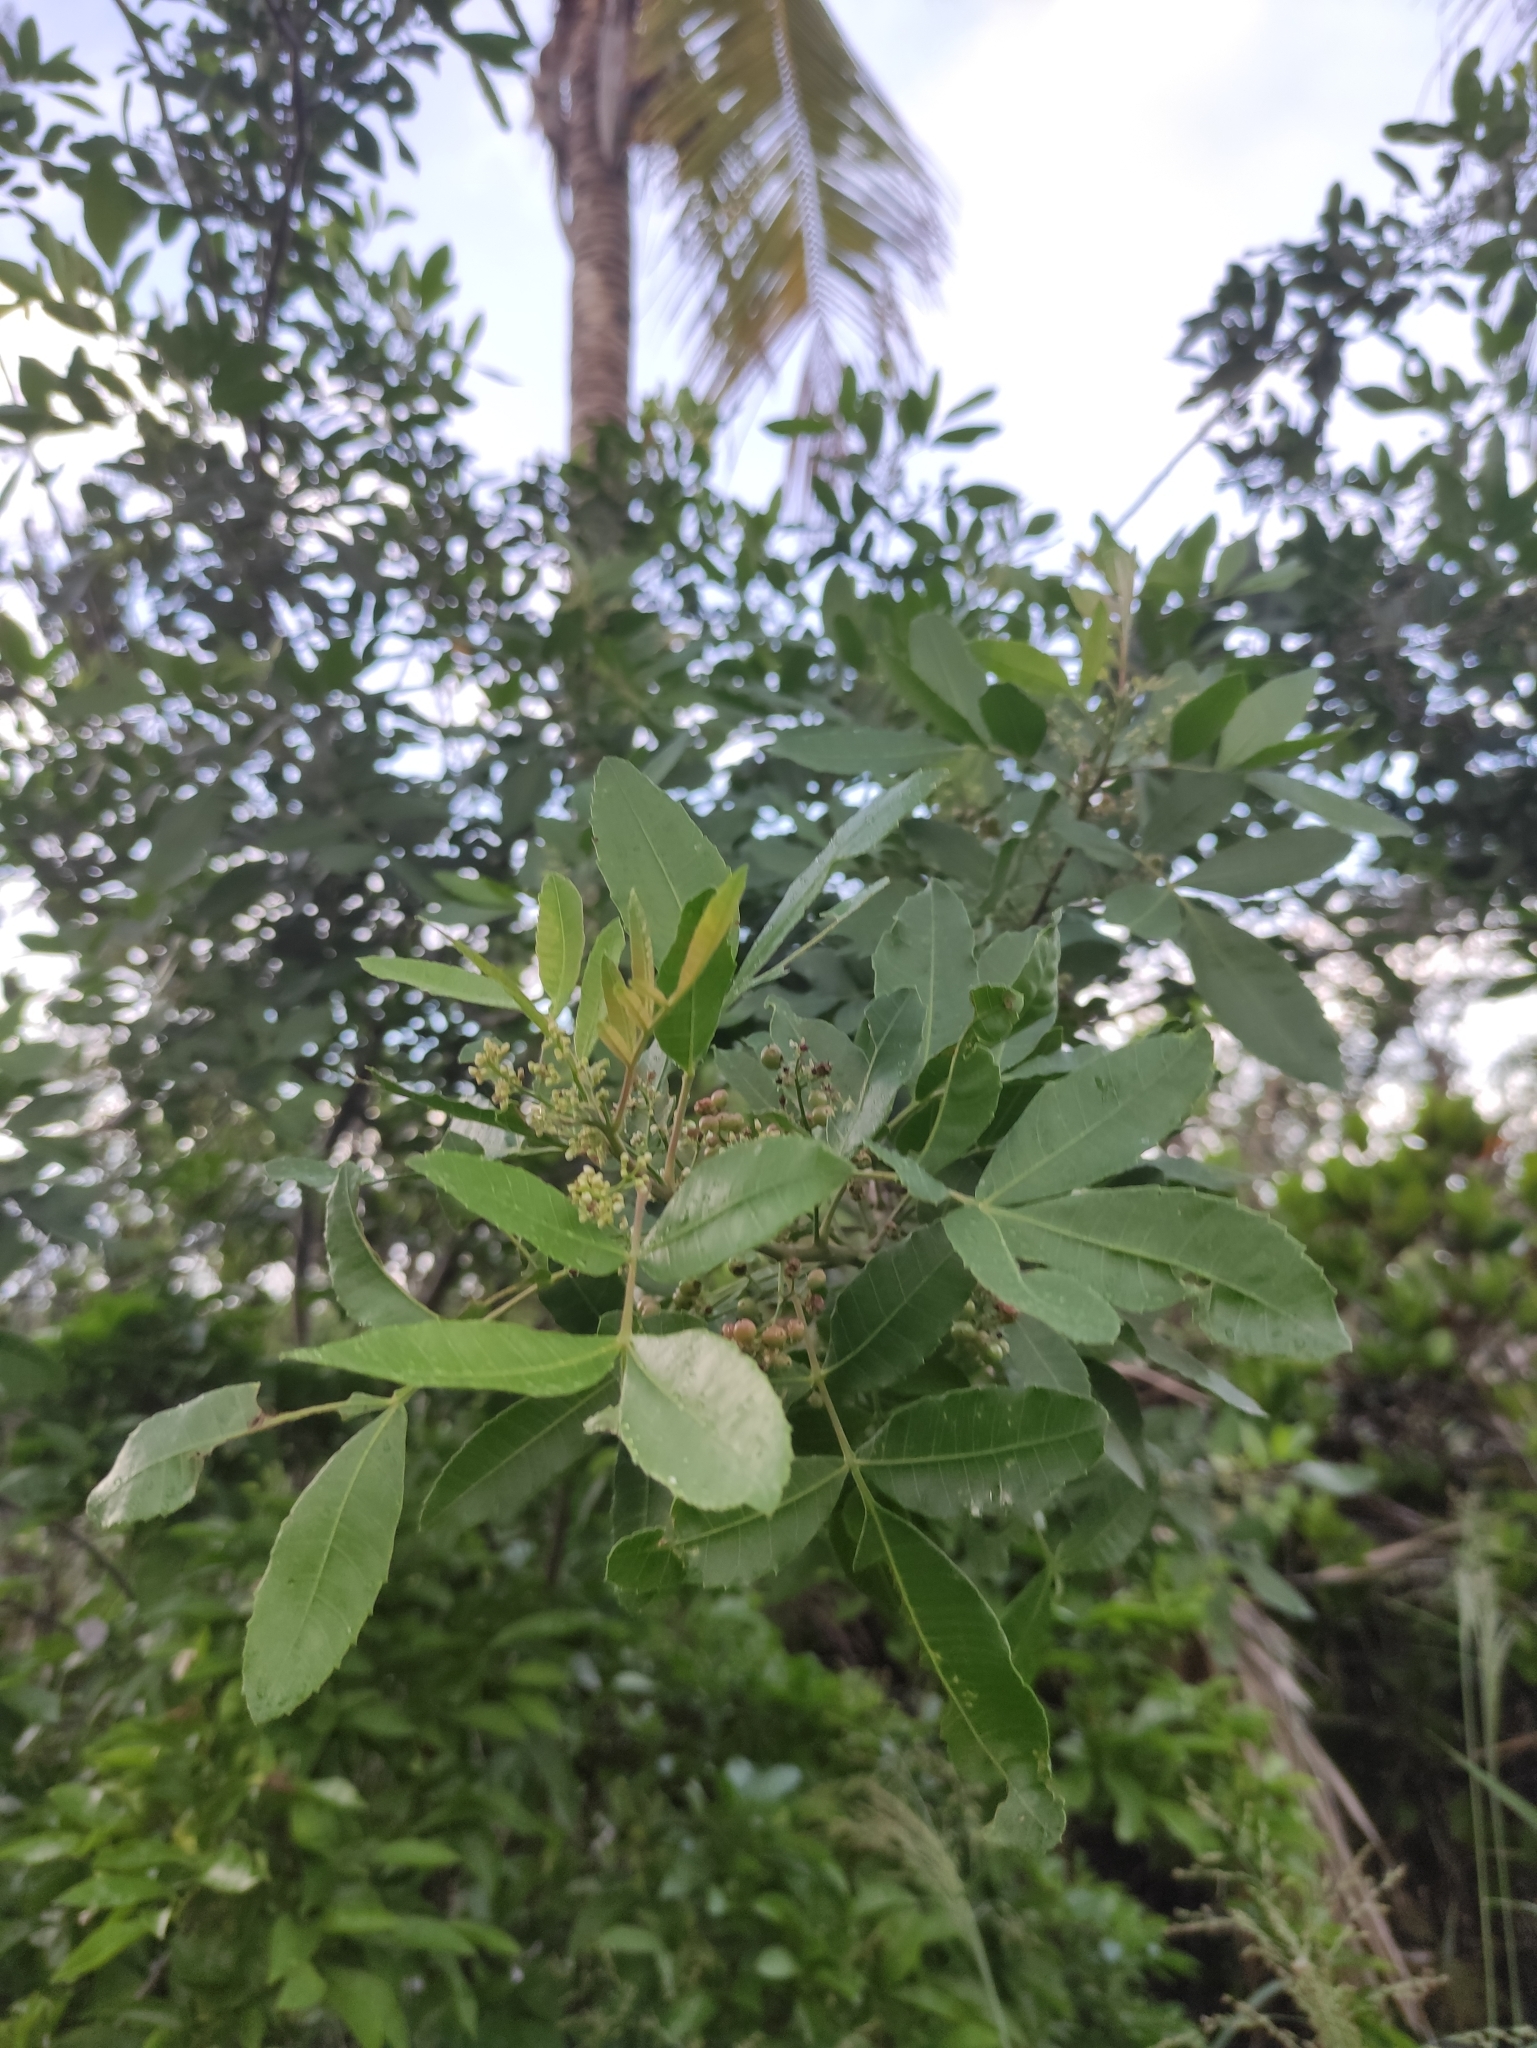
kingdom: Plantae
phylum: Tracheophyta
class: Magnoliopsida
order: Sapindales
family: Anacardiaceae
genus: Schinus
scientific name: Schinus terebinthifolia
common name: Brazilian peppertree
